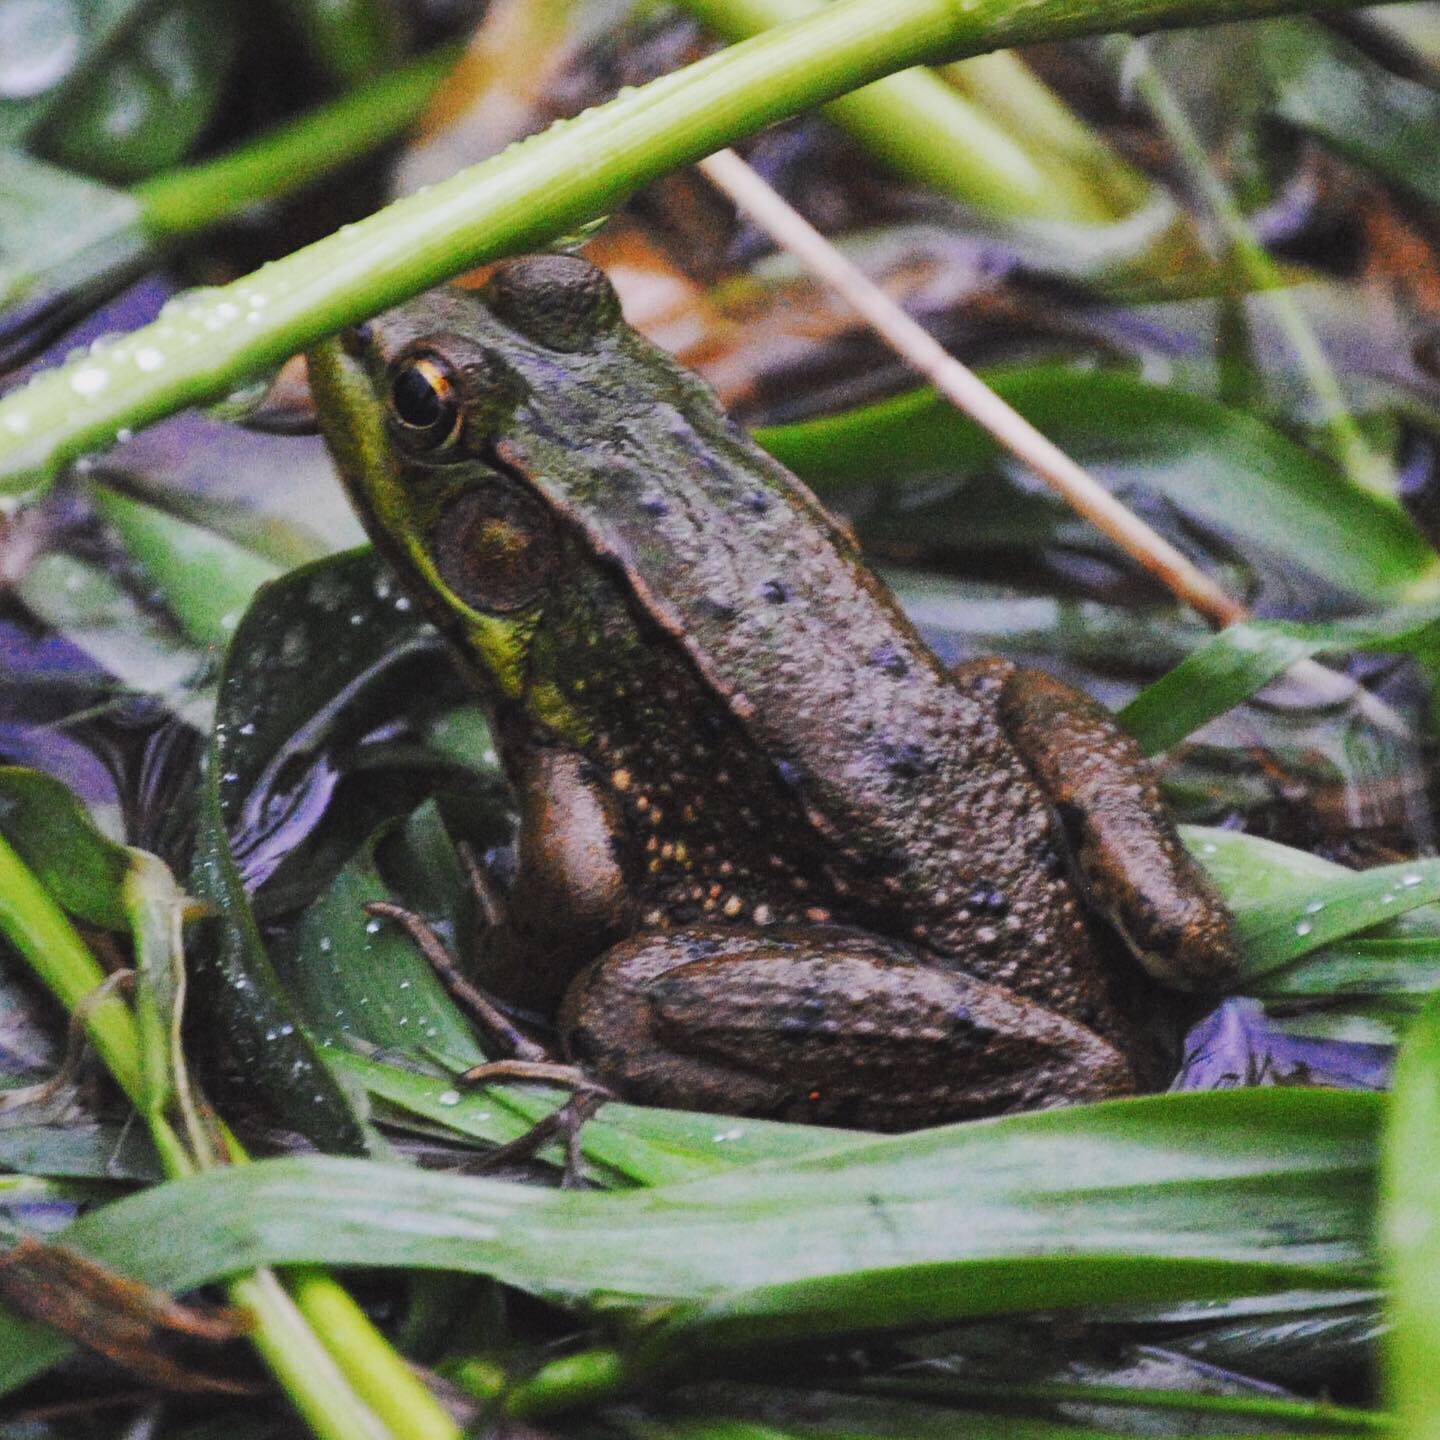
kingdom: Animalia
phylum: Chordata
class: Amphibia
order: Anura
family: Ranidae
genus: Lithobates
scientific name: Lithobates clamitans
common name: Green frog
